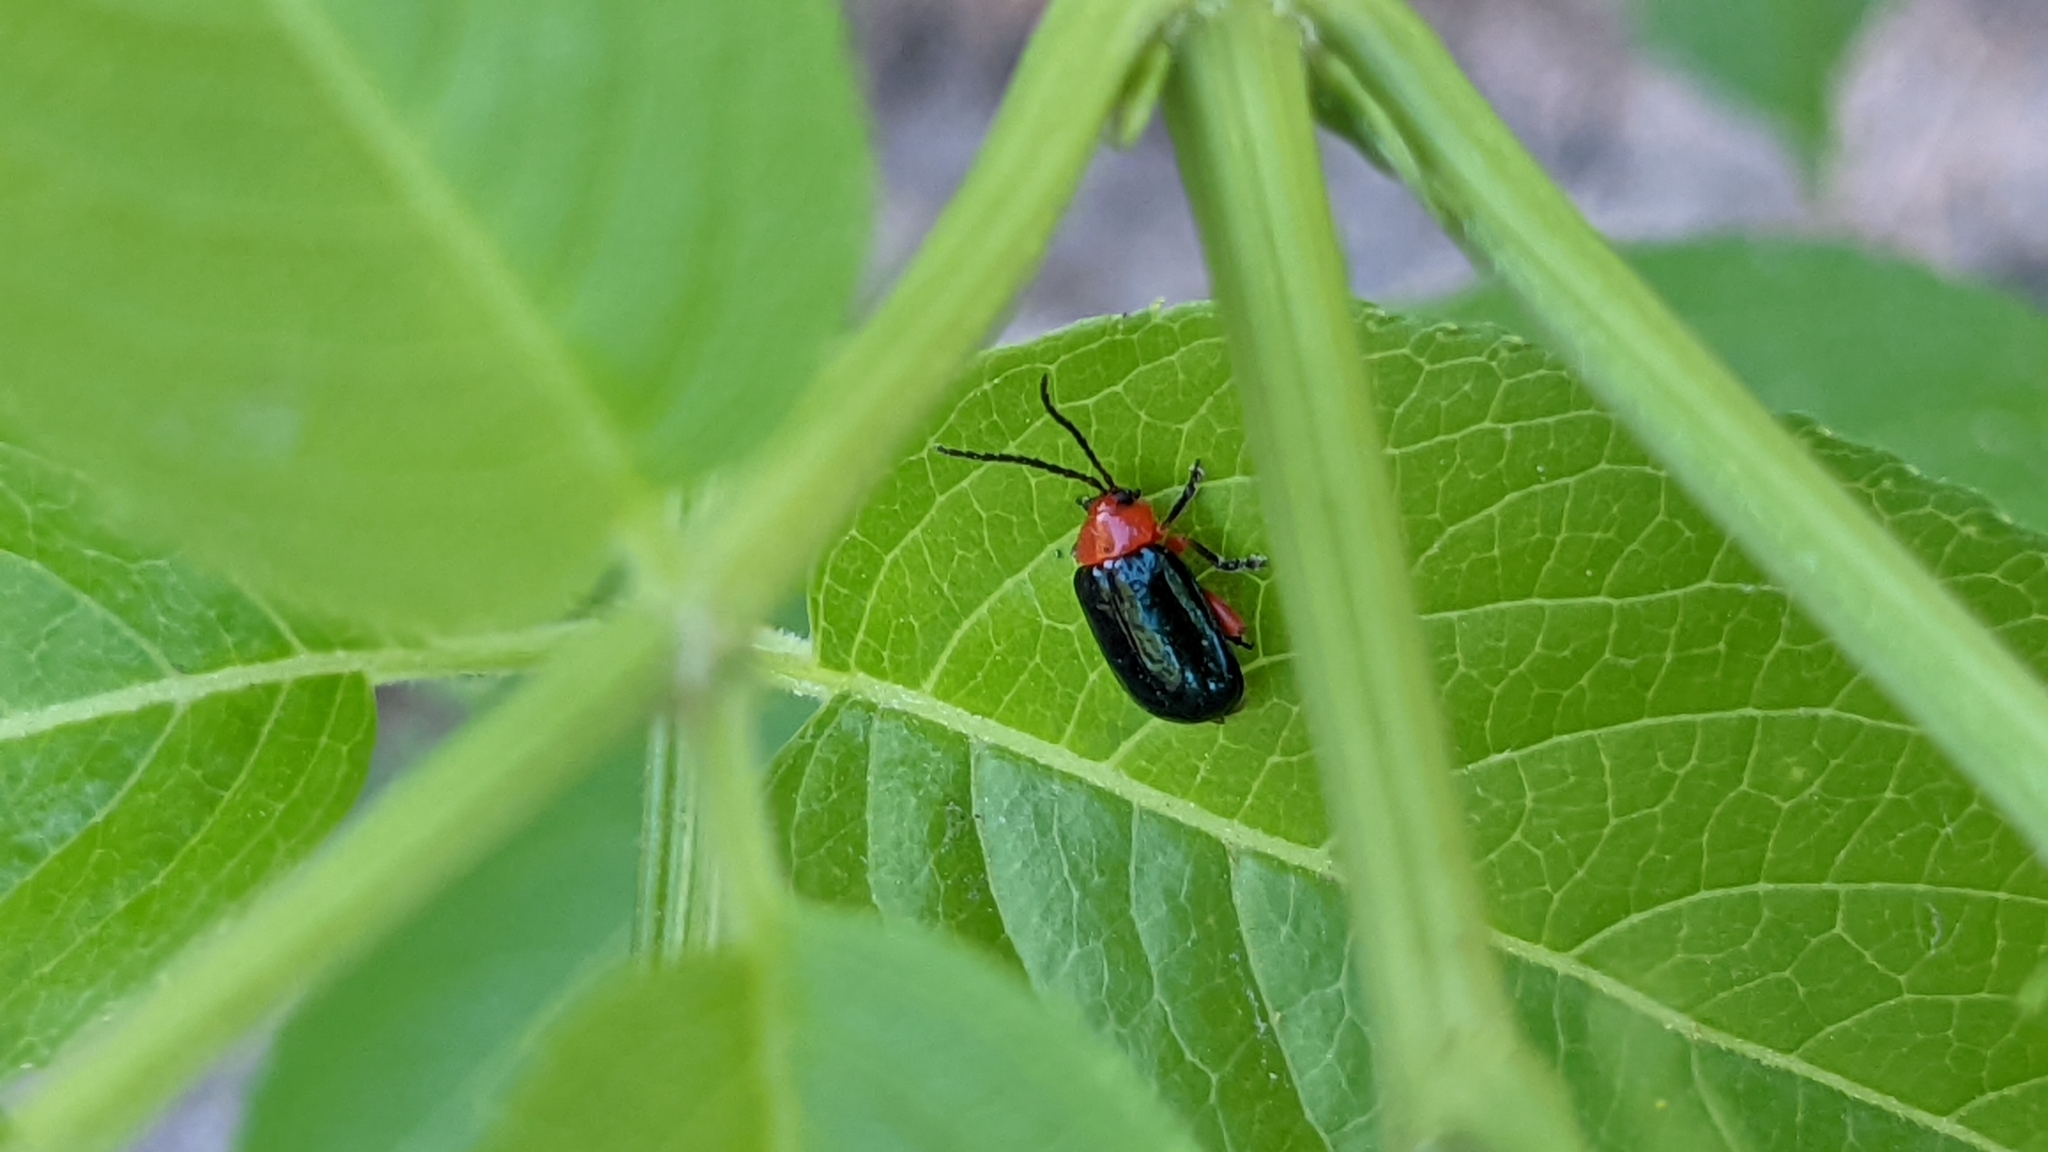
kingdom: Animalia
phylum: Arthropoda
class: Insecta
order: Coleoptera
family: Chrysomelidae
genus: Asphaera
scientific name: Asphaera lustrans
